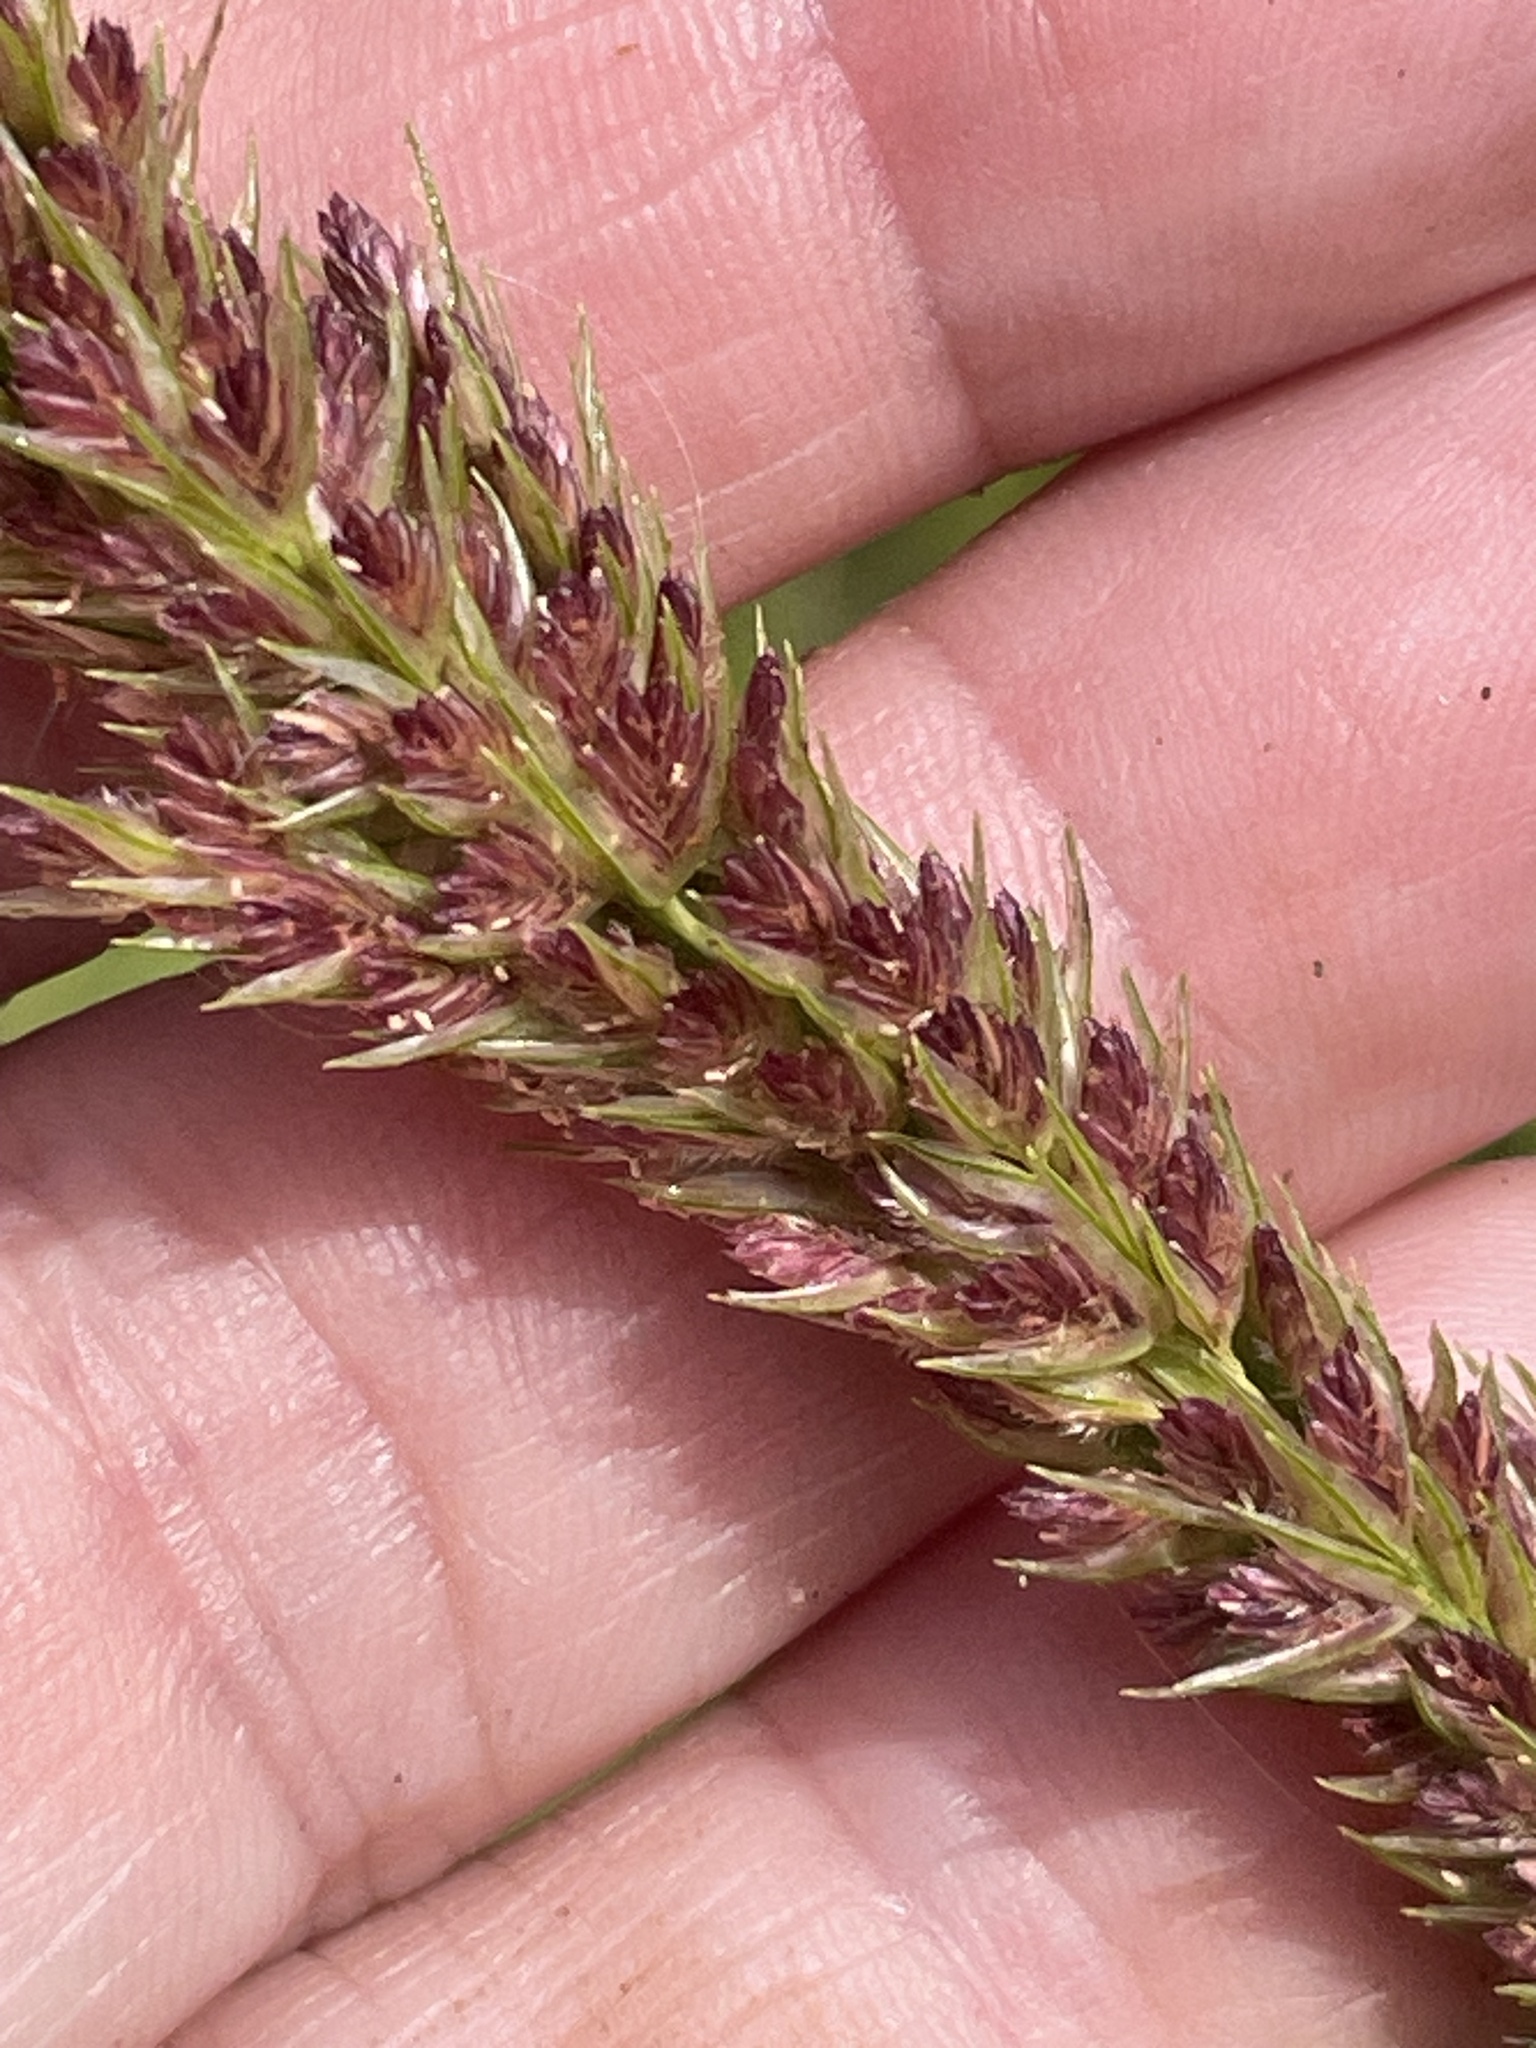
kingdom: Plantae
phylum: Tracheophyta
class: Liliopsida
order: Poales
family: Poaceae
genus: Tridens
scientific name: Tridens strictus
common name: Long-spike tridens
